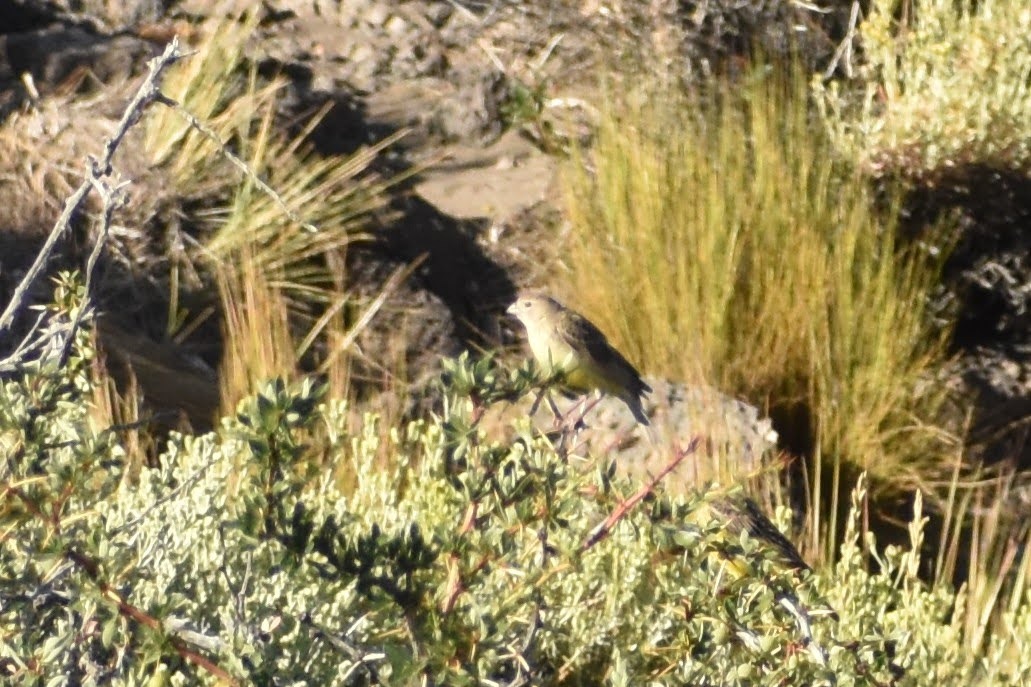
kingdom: Animalia
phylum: Chordata
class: Aves
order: Passeriformes
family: Thraupidae
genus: Sicalis
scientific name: Sicalis luteola
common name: Grassland yellow-finch
